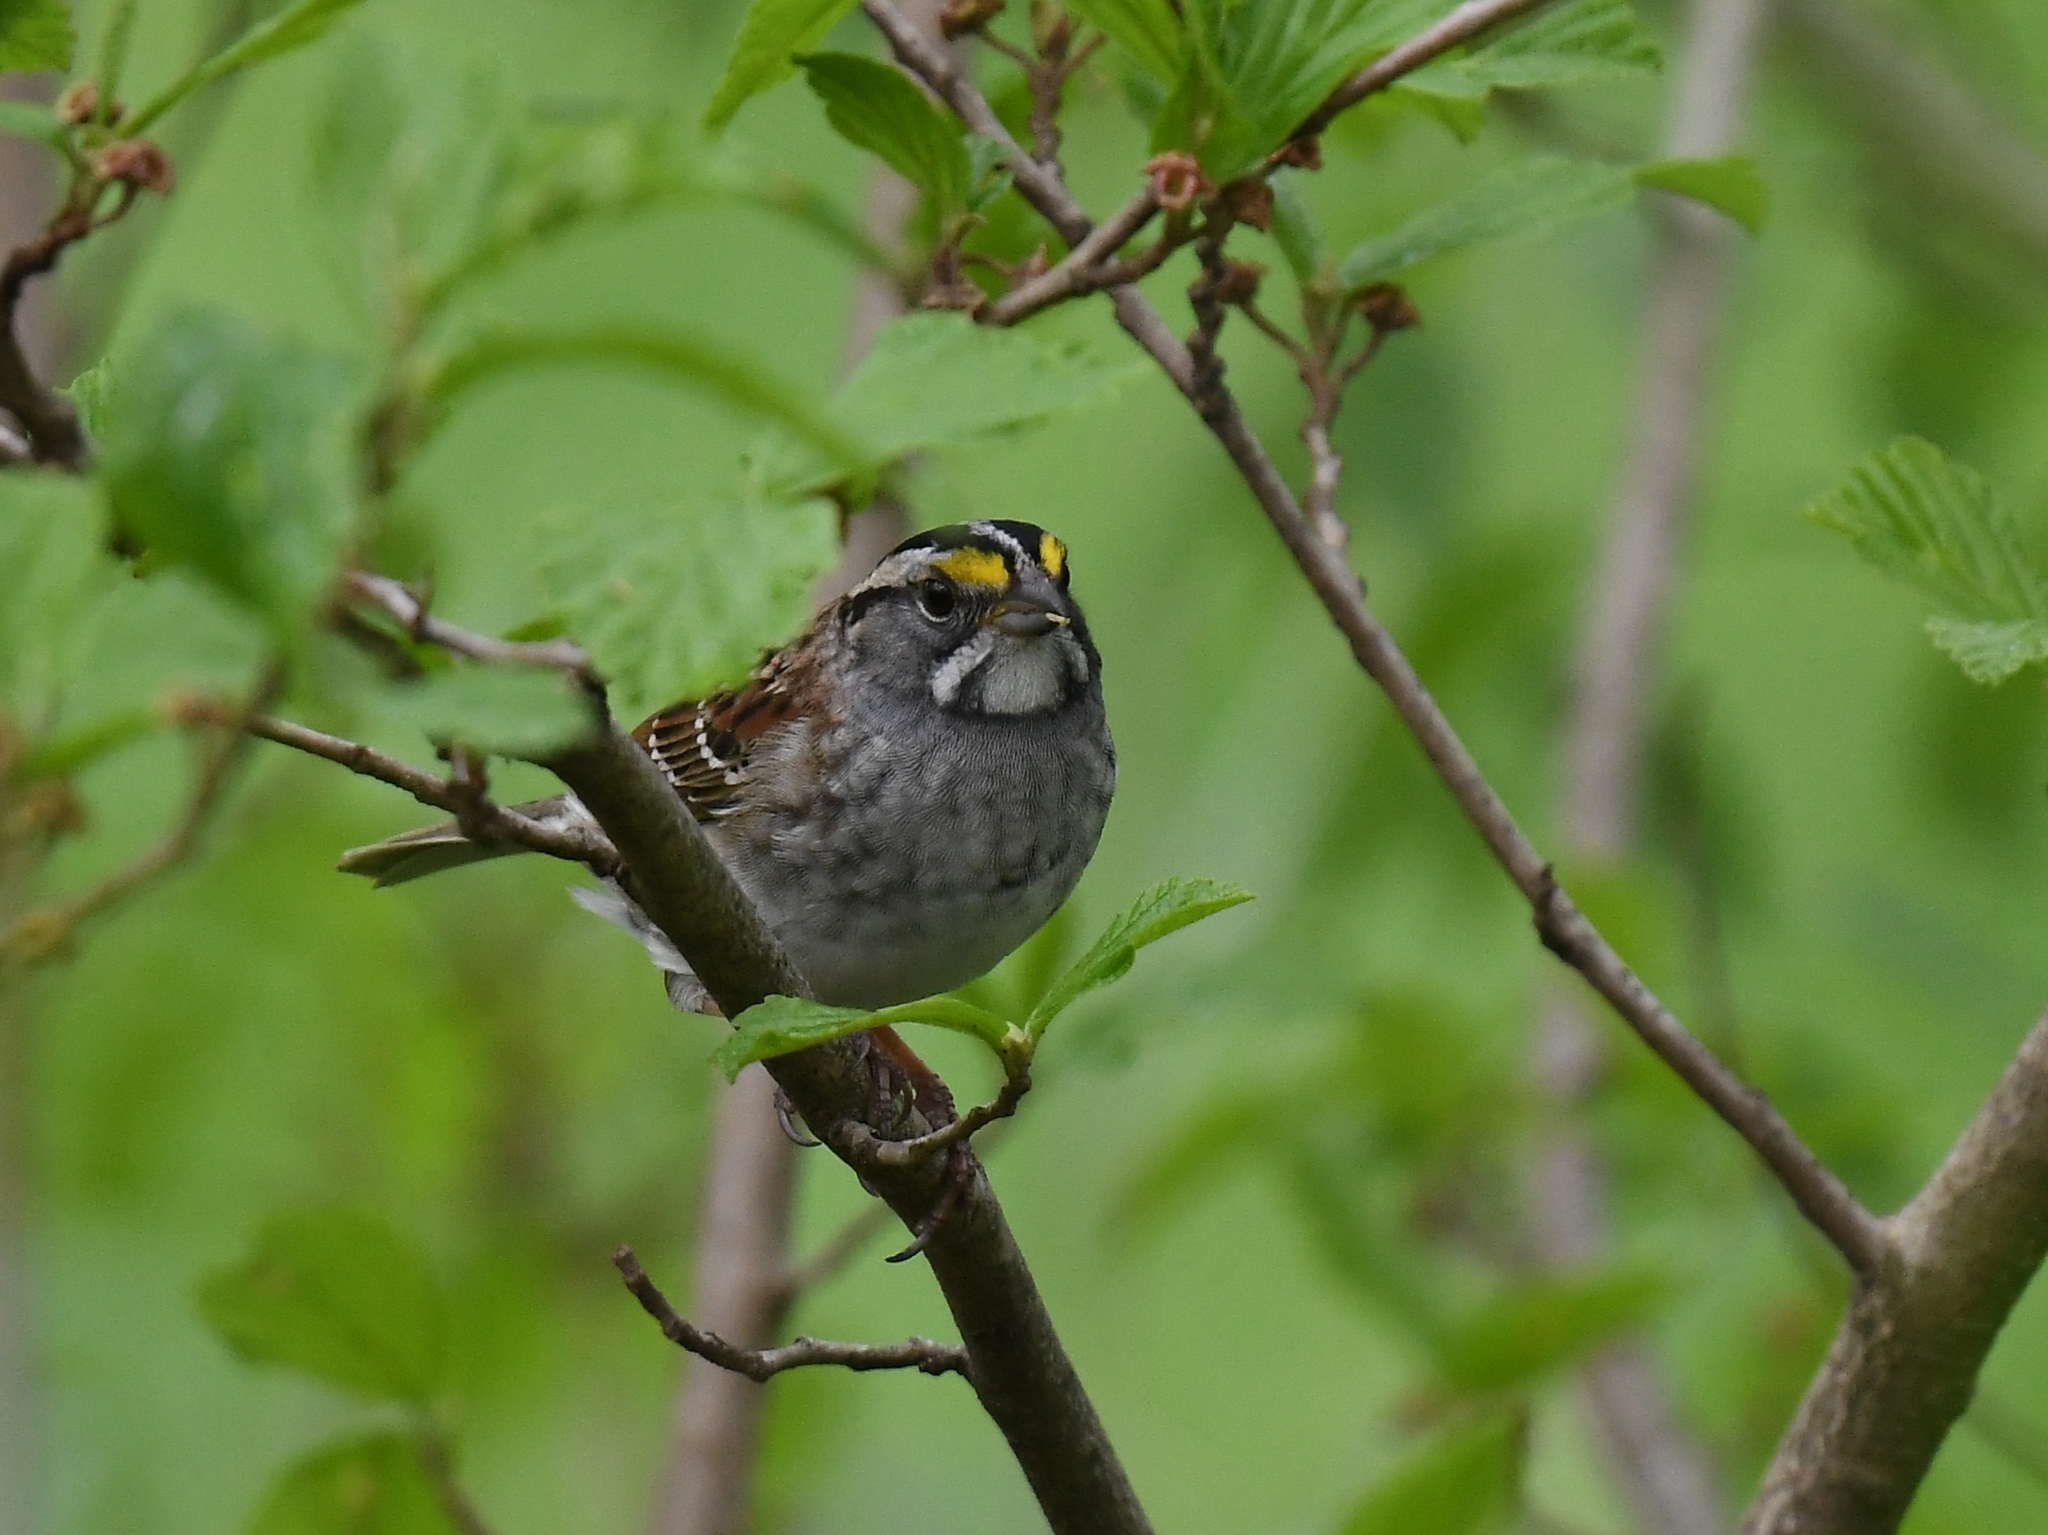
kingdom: Animalia
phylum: Chordata
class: Aves
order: Passeriformes
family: Passerellidae
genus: Zonotrichia
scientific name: Zonotrichia albicollis
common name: White-throated sparrow
